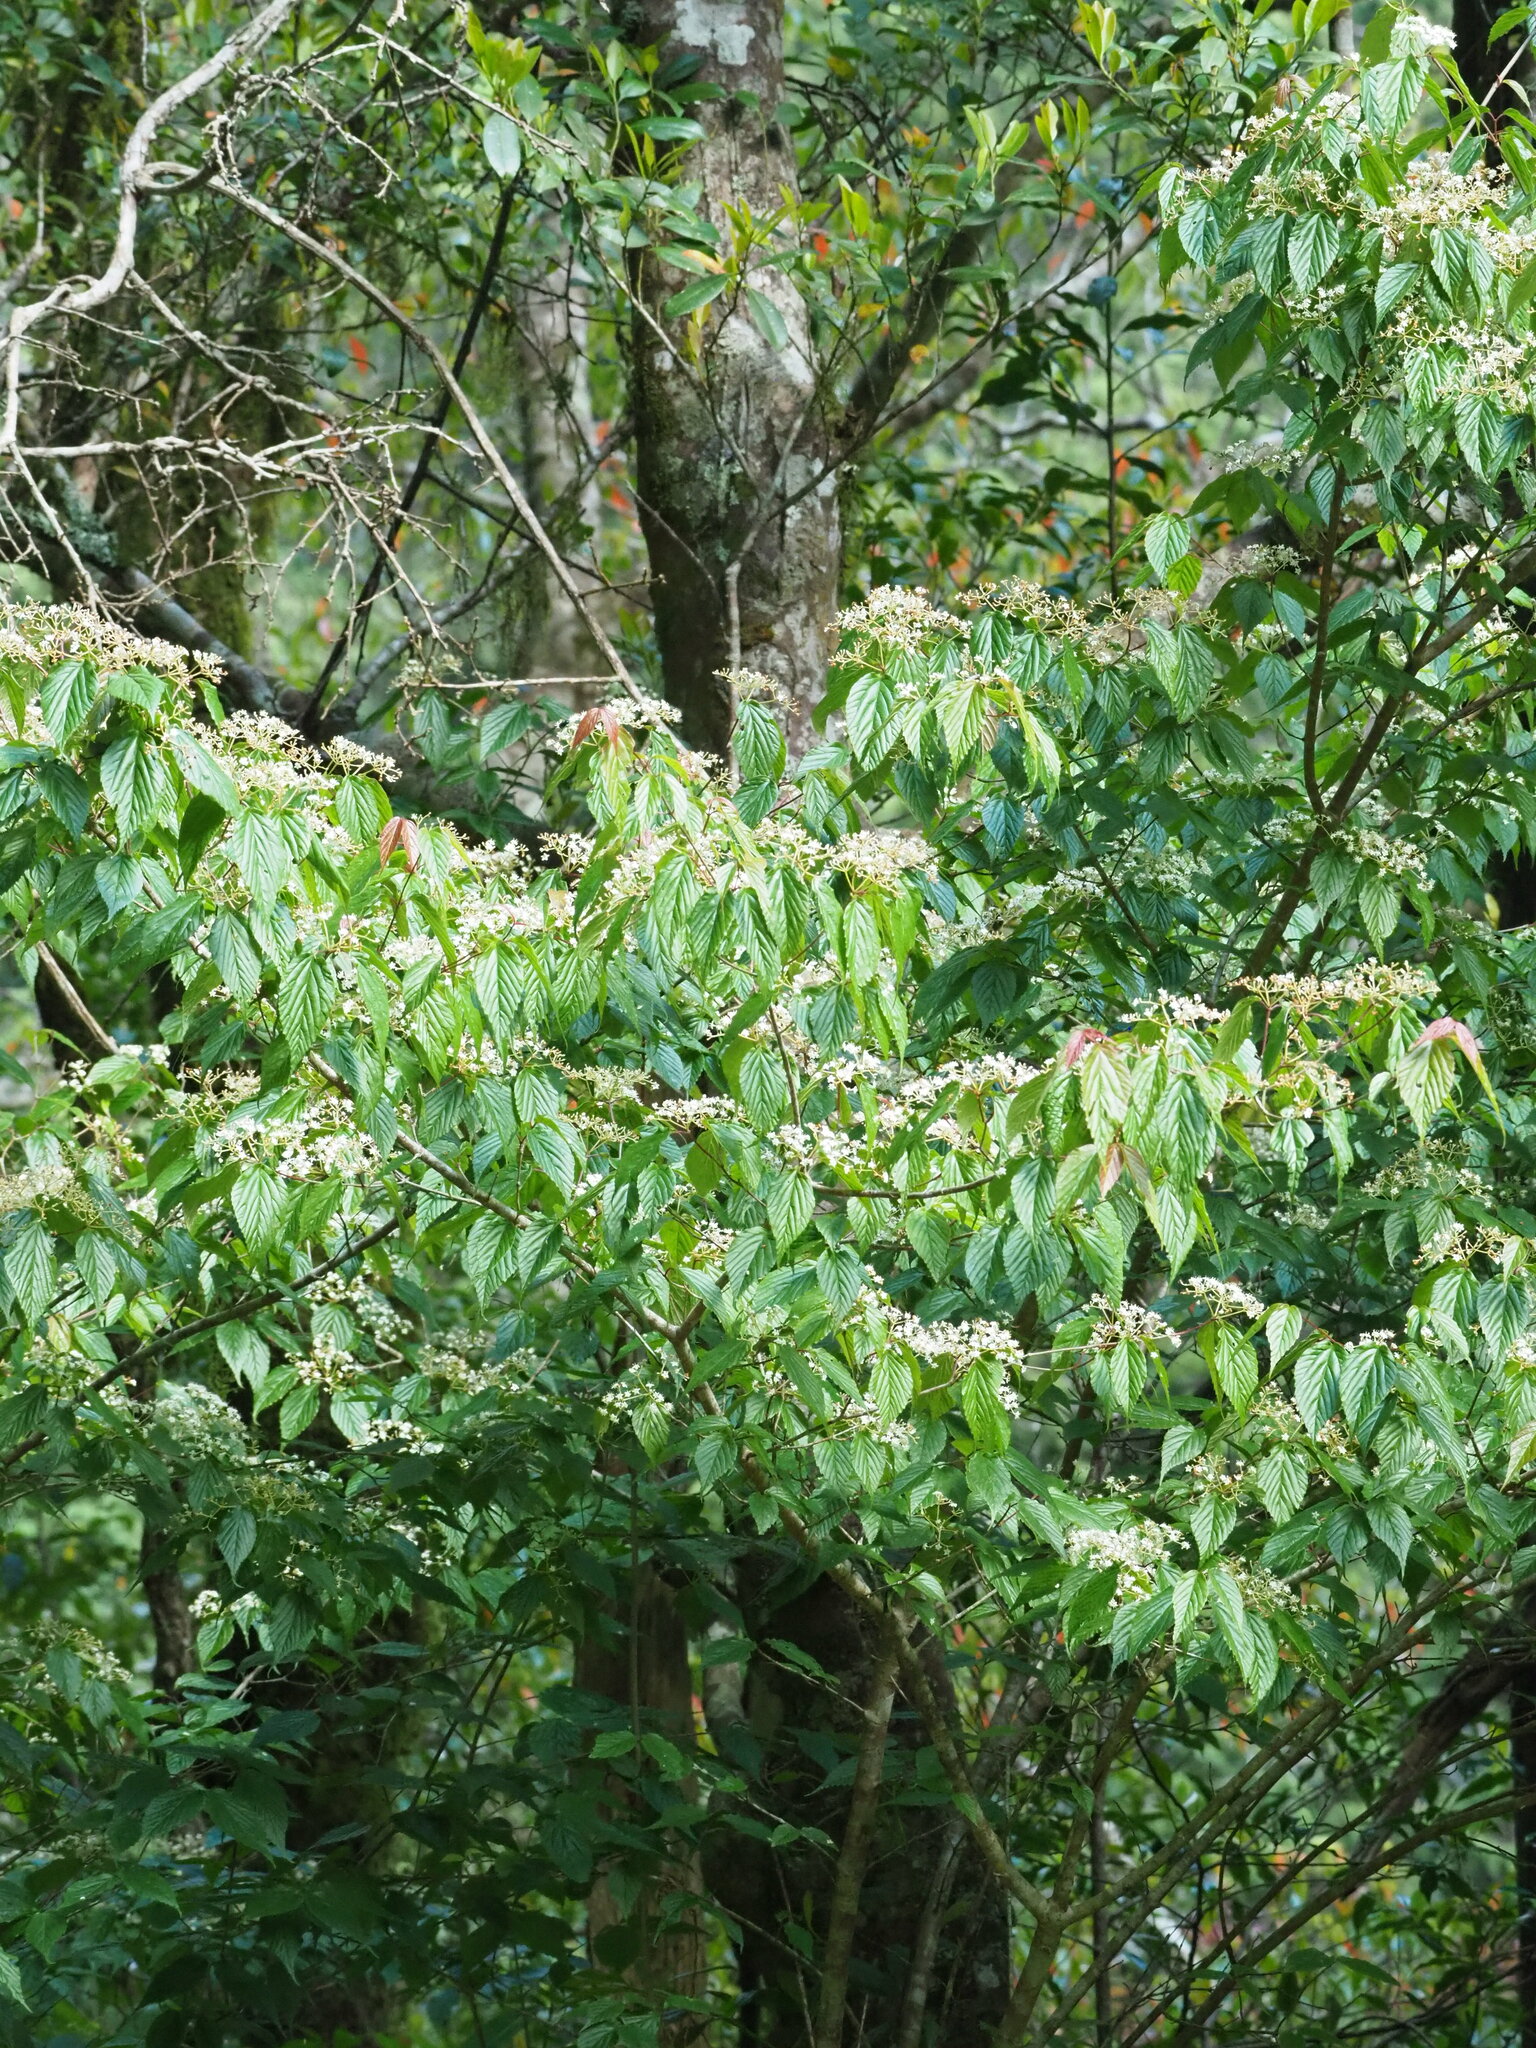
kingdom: Plantae
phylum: Tracheophyta
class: Magnoliopsida
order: Dipsacales
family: Viburnaceae
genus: Viburnum
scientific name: Viburnum luzonicum
